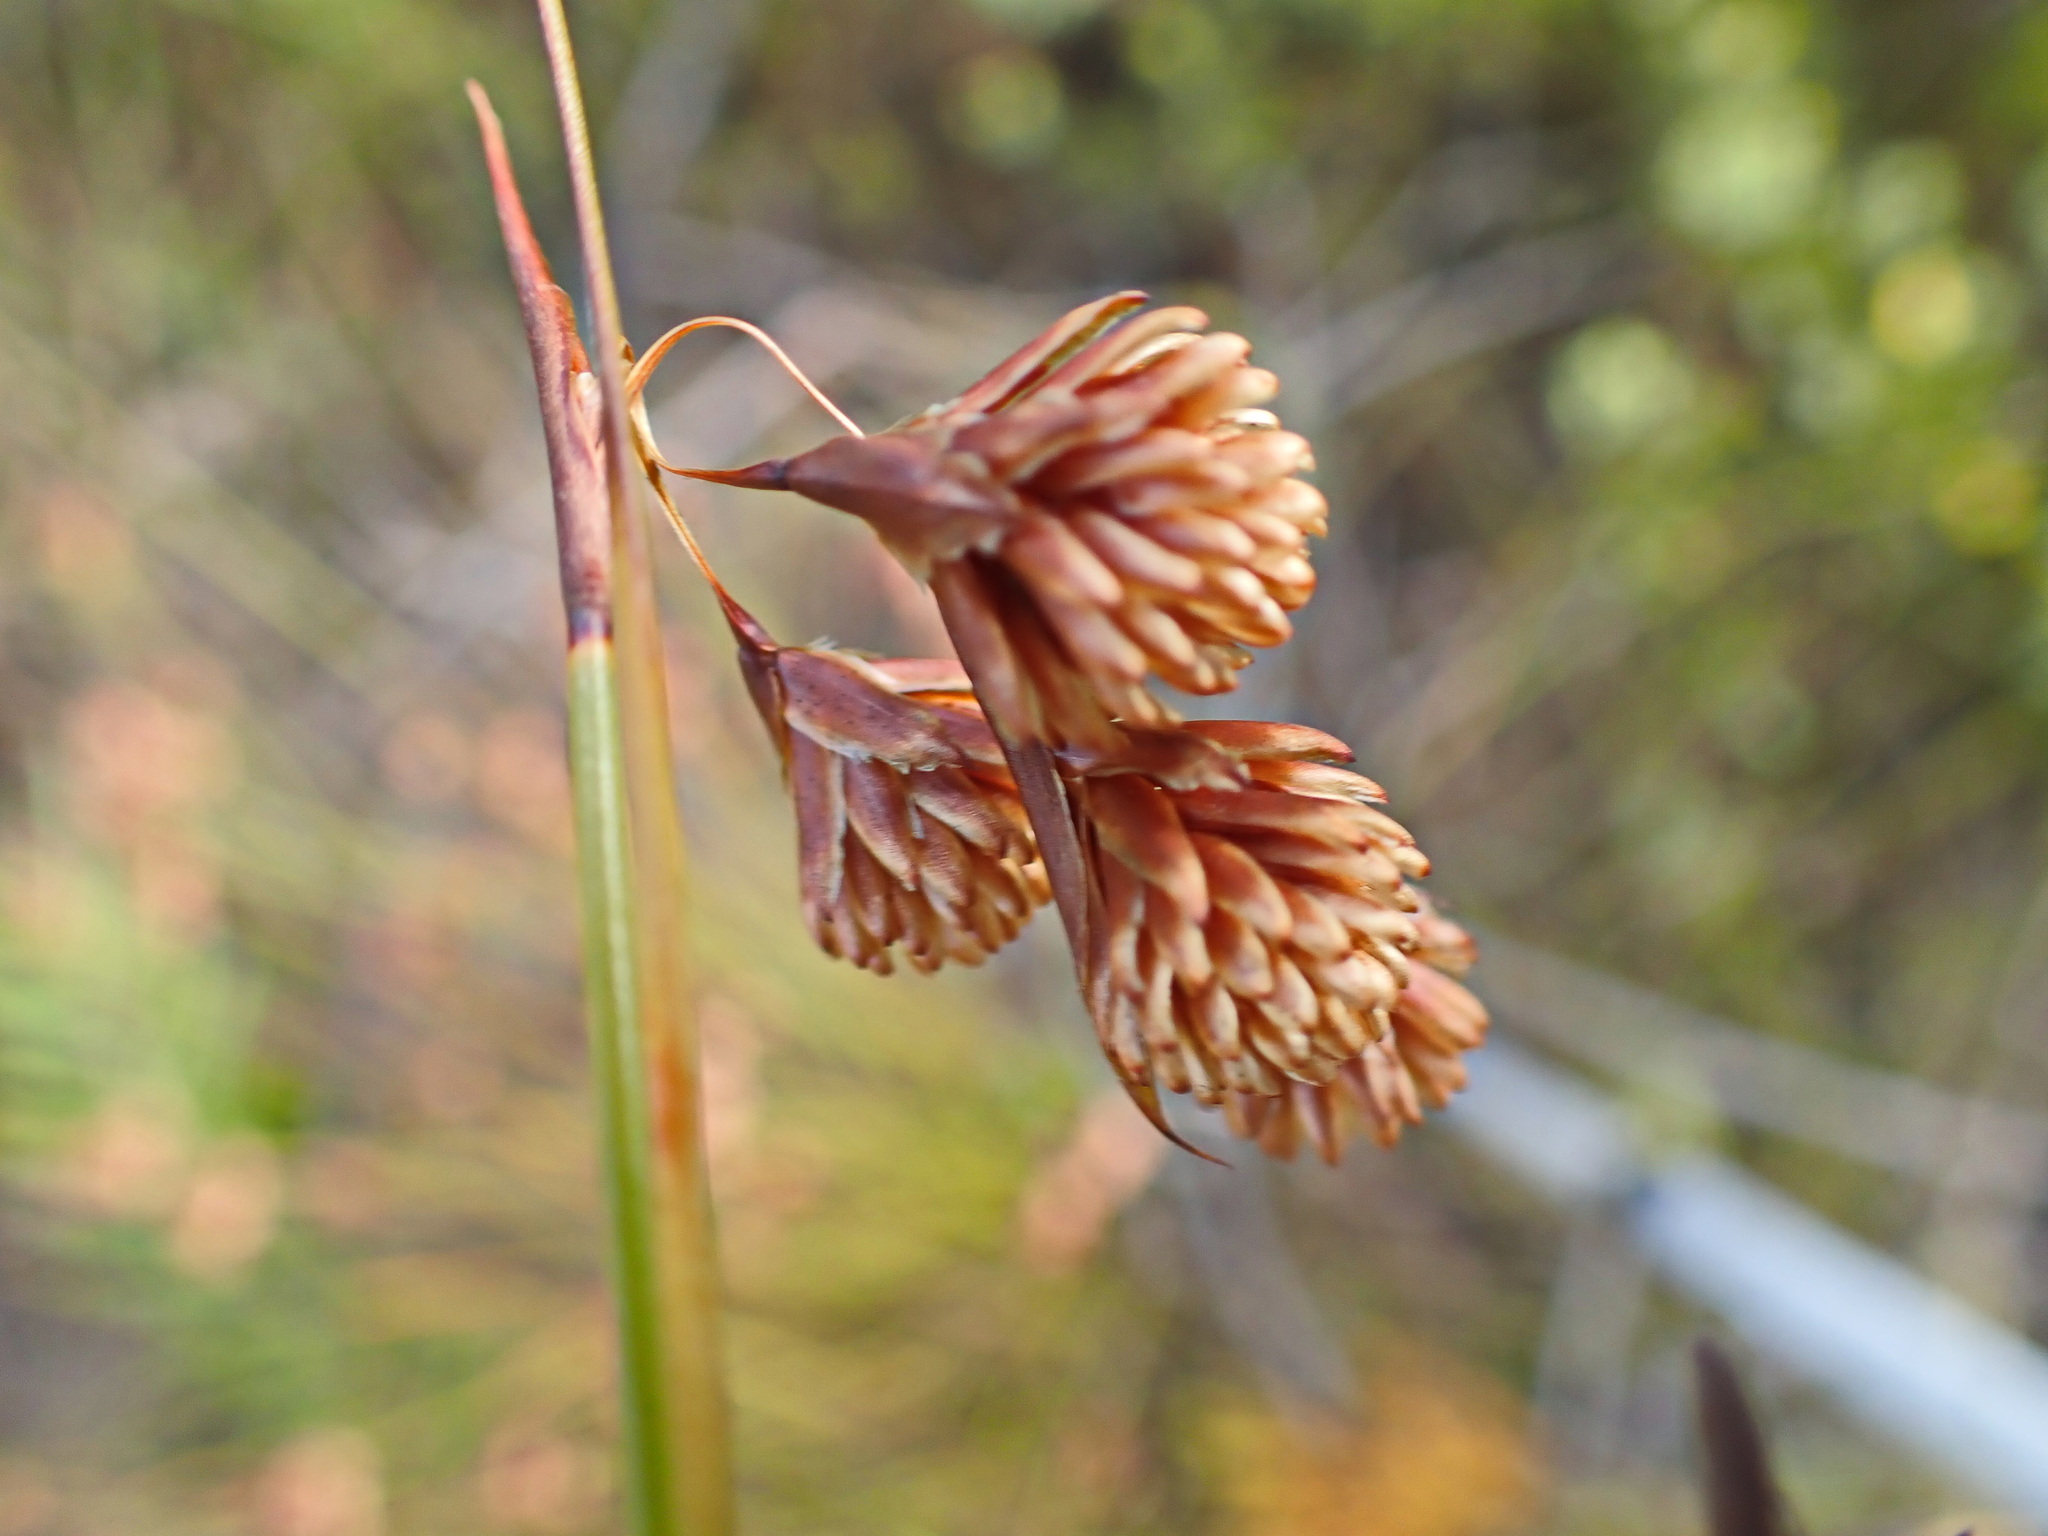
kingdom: Plantae
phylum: Tracheophyta
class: Liliopsida
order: Poales
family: Restionaceae
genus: Staberoha
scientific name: Staberoha cernua
